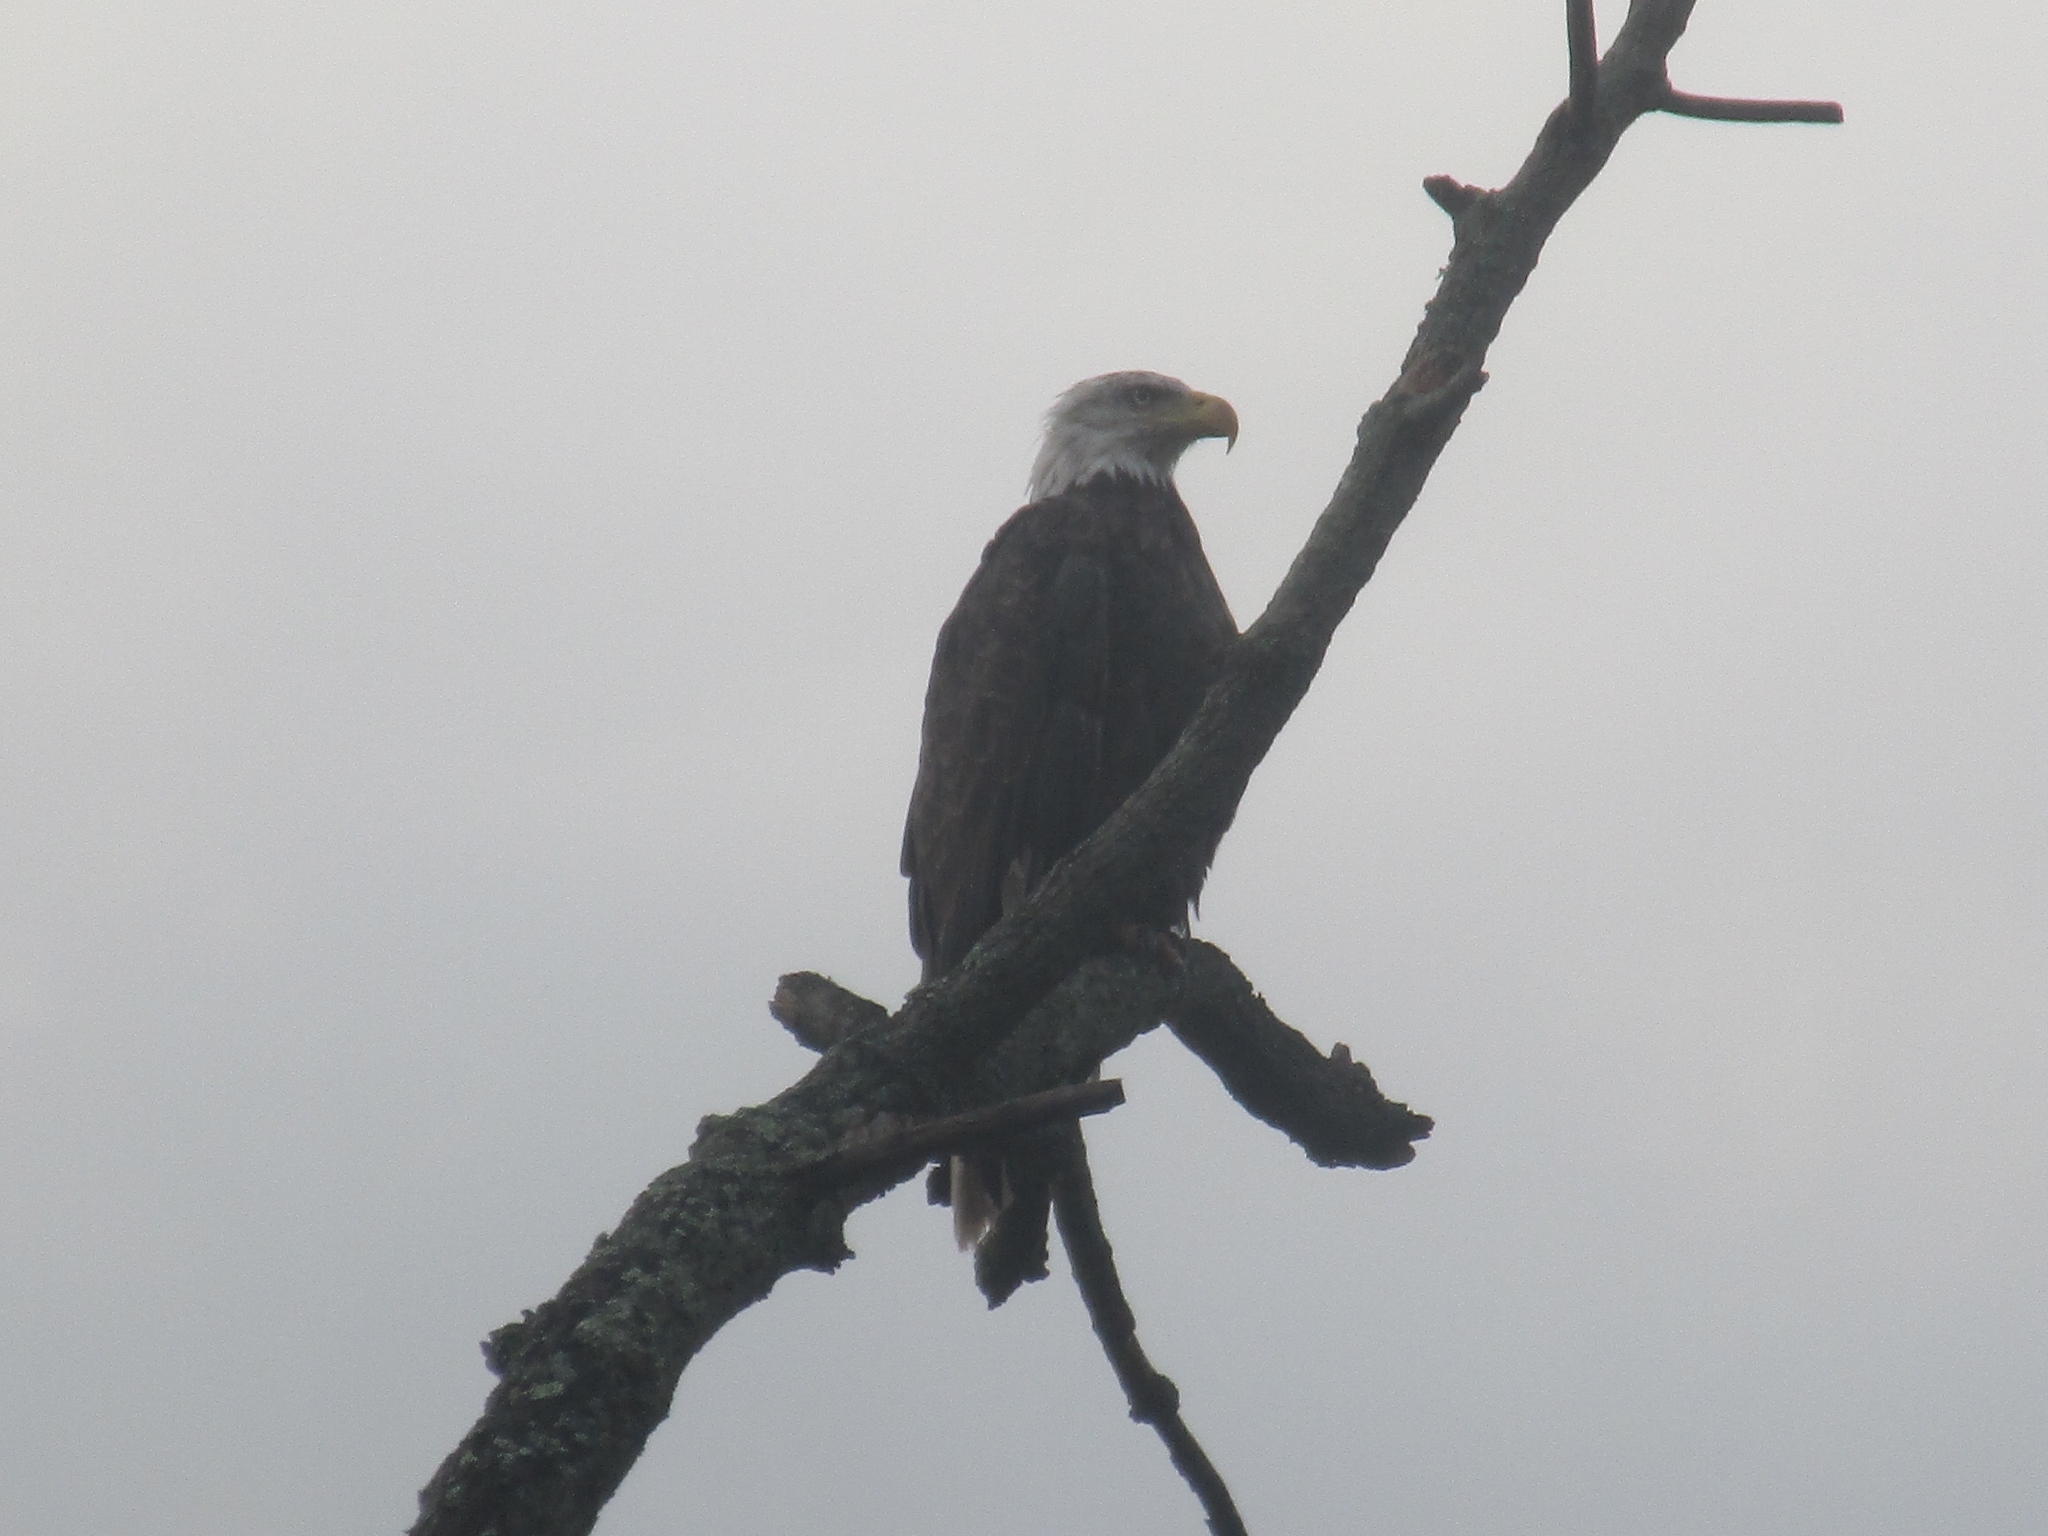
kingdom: Animalia
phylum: Chordata
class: Aves
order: Accipitriformes
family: Accipitridae
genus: Haliaeetus
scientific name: Haliaeetus leucocephalus
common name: Bald eagle
